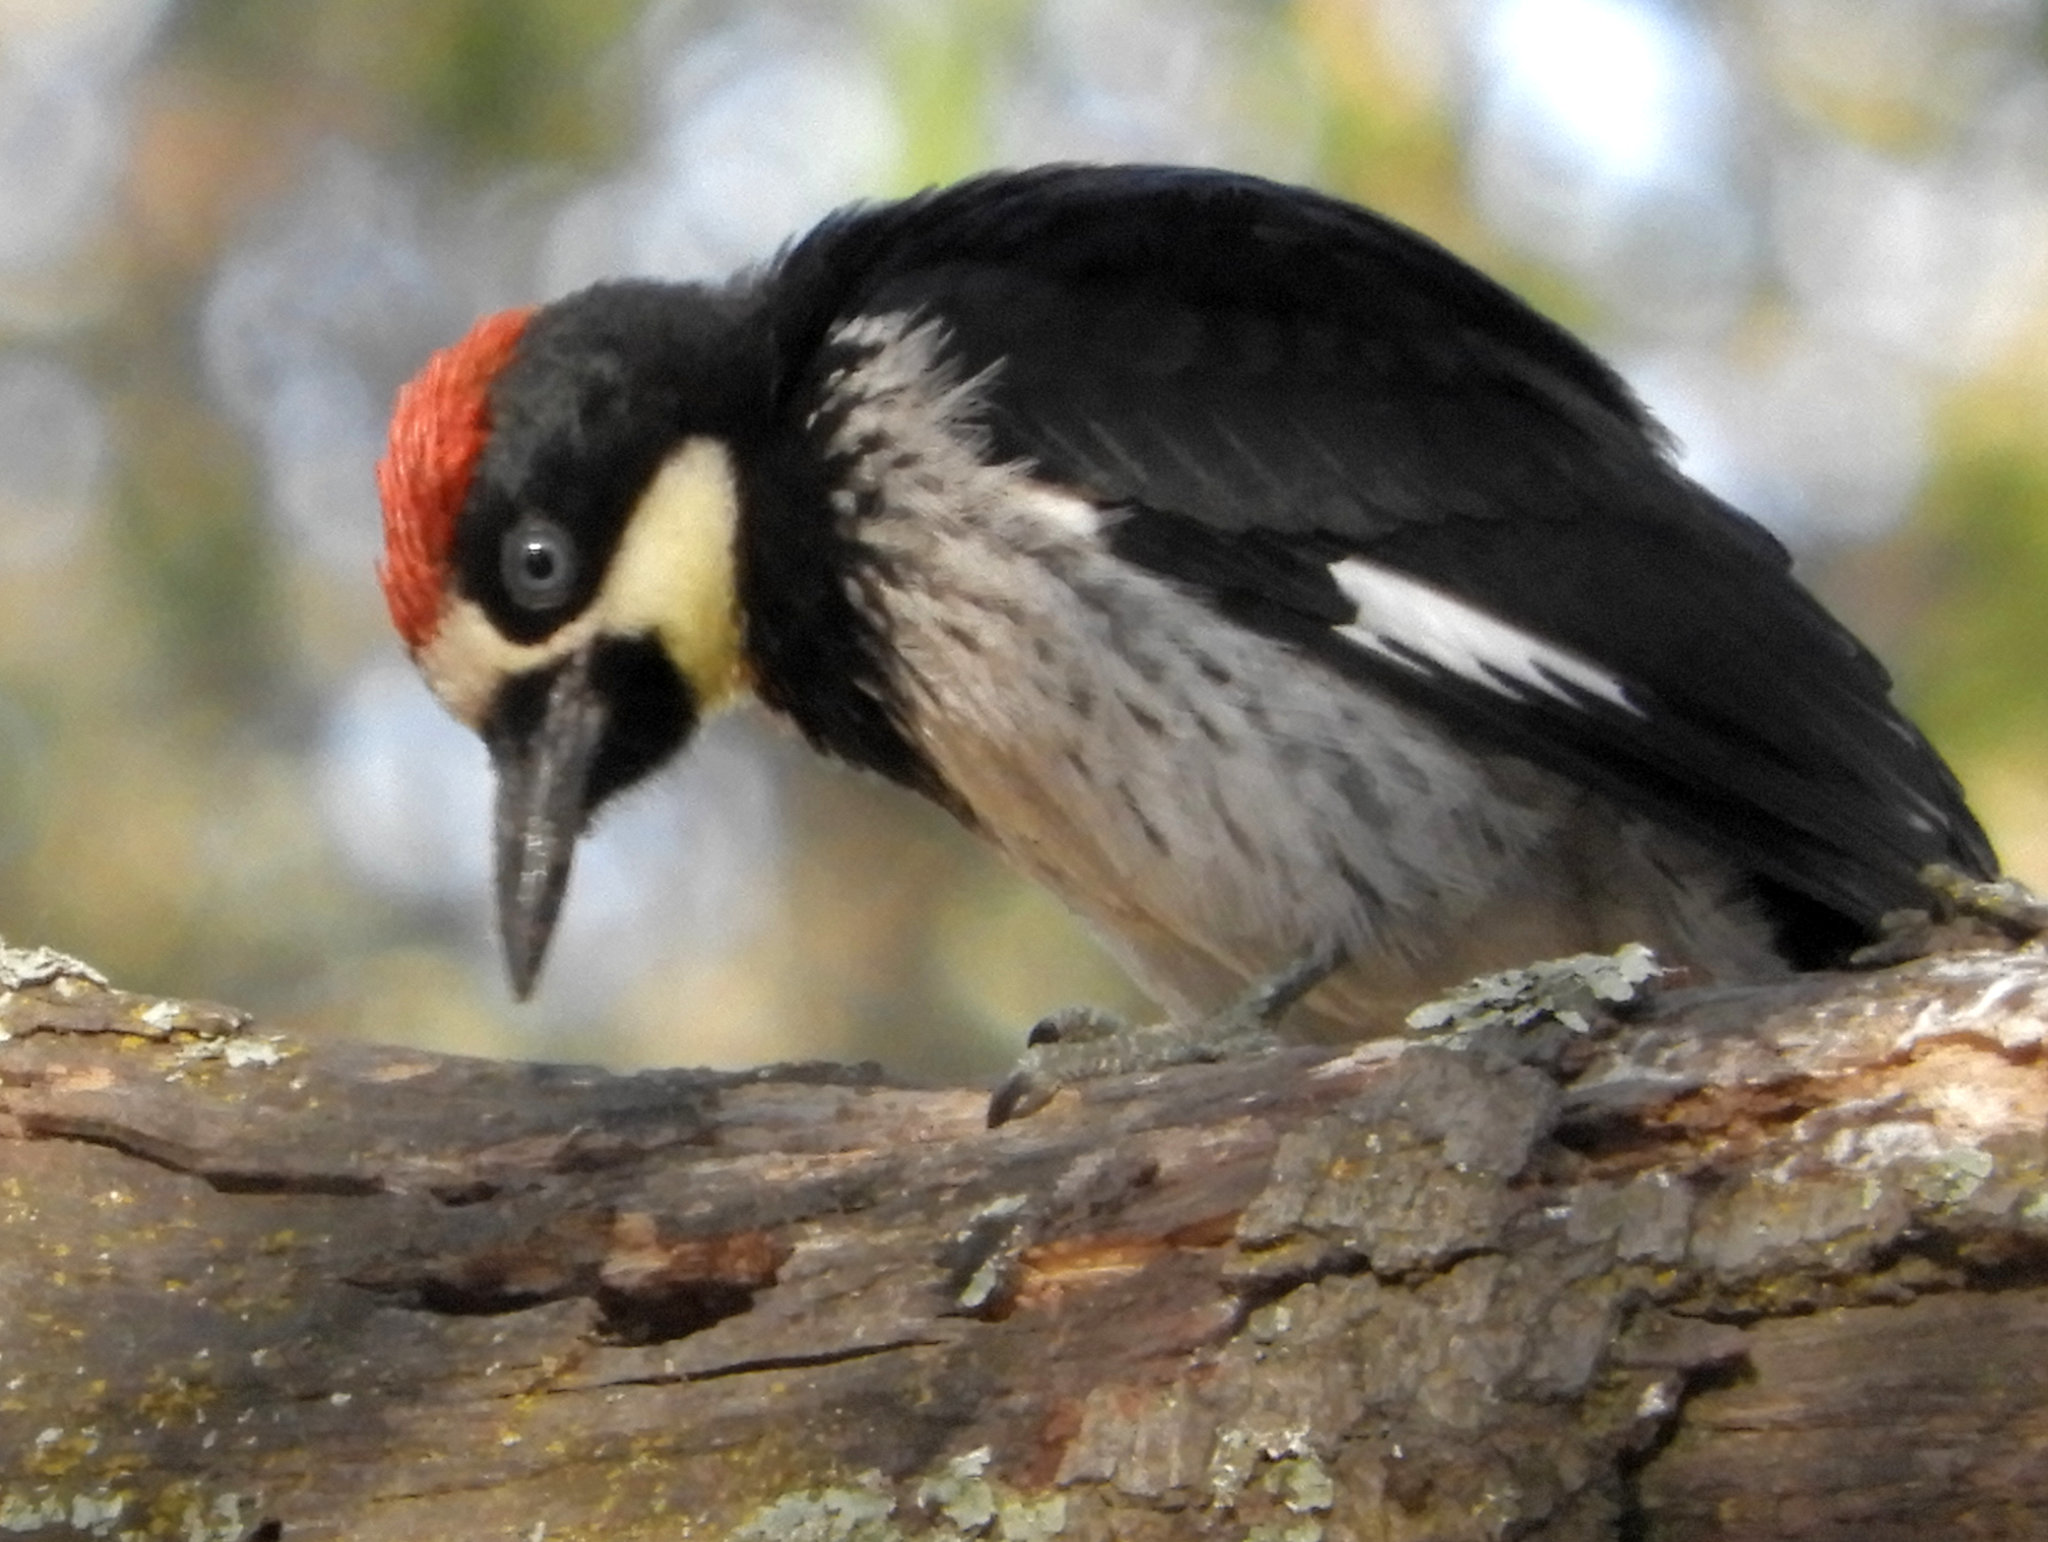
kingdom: Animalia
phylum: Chordata
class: Aves
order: Piciformes
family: Picidae
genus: Melanerpes
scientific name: Melanerpes formicivorus
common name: Acorn woodpecker
